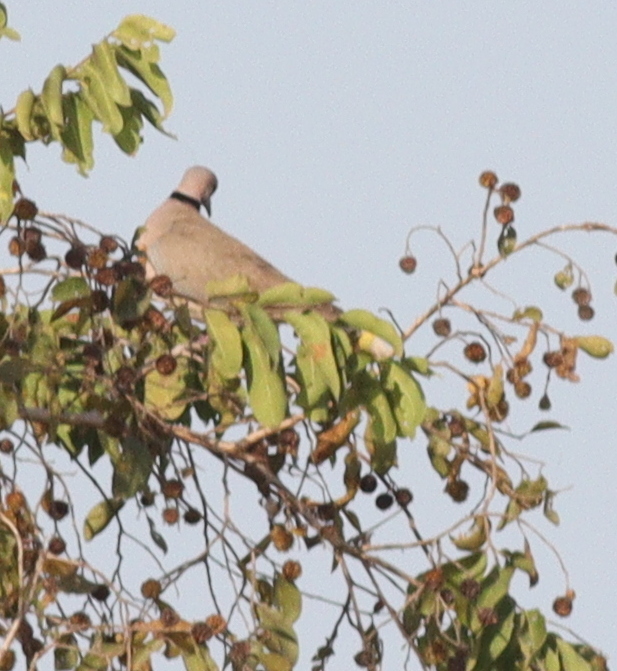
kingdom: Animalia
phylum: Chordata
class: Aves
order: Columbiformes
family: Columbidae
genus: Streptopelia
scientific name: Streptopelia vinacea
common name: Vinaceous dove
